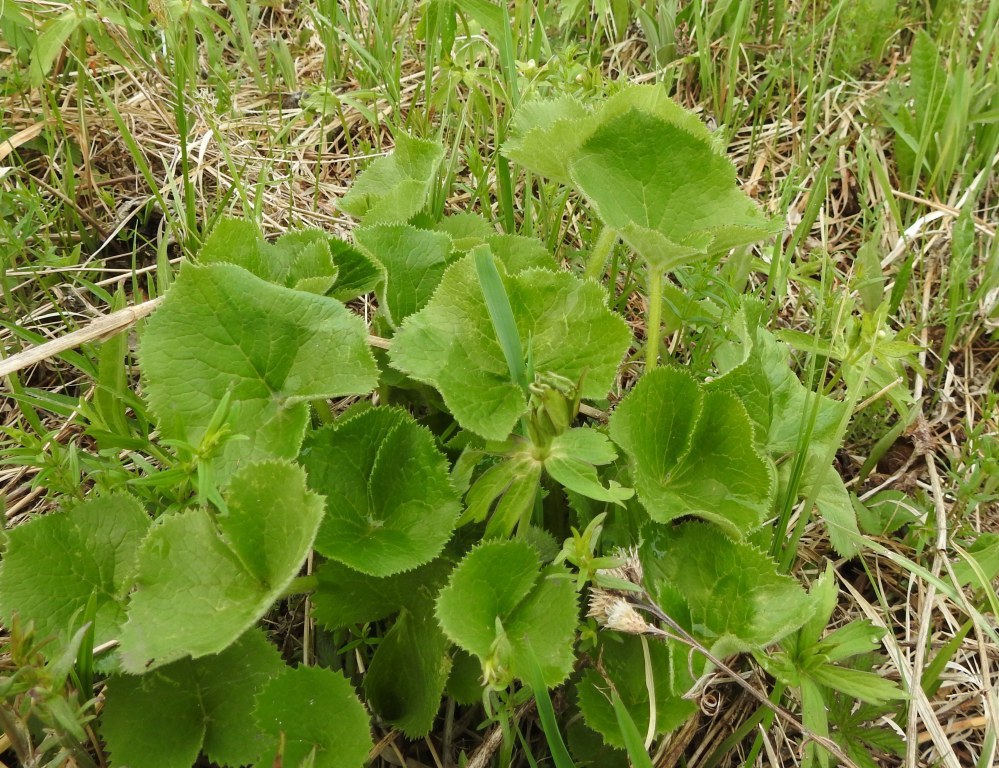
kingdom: Plantae
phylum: Tracheophyta
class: Magnoliopsida
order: Ranunculales
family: Ranunculaceae
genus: Caltha
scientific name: Caltha palustris
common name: Marsh marigold
